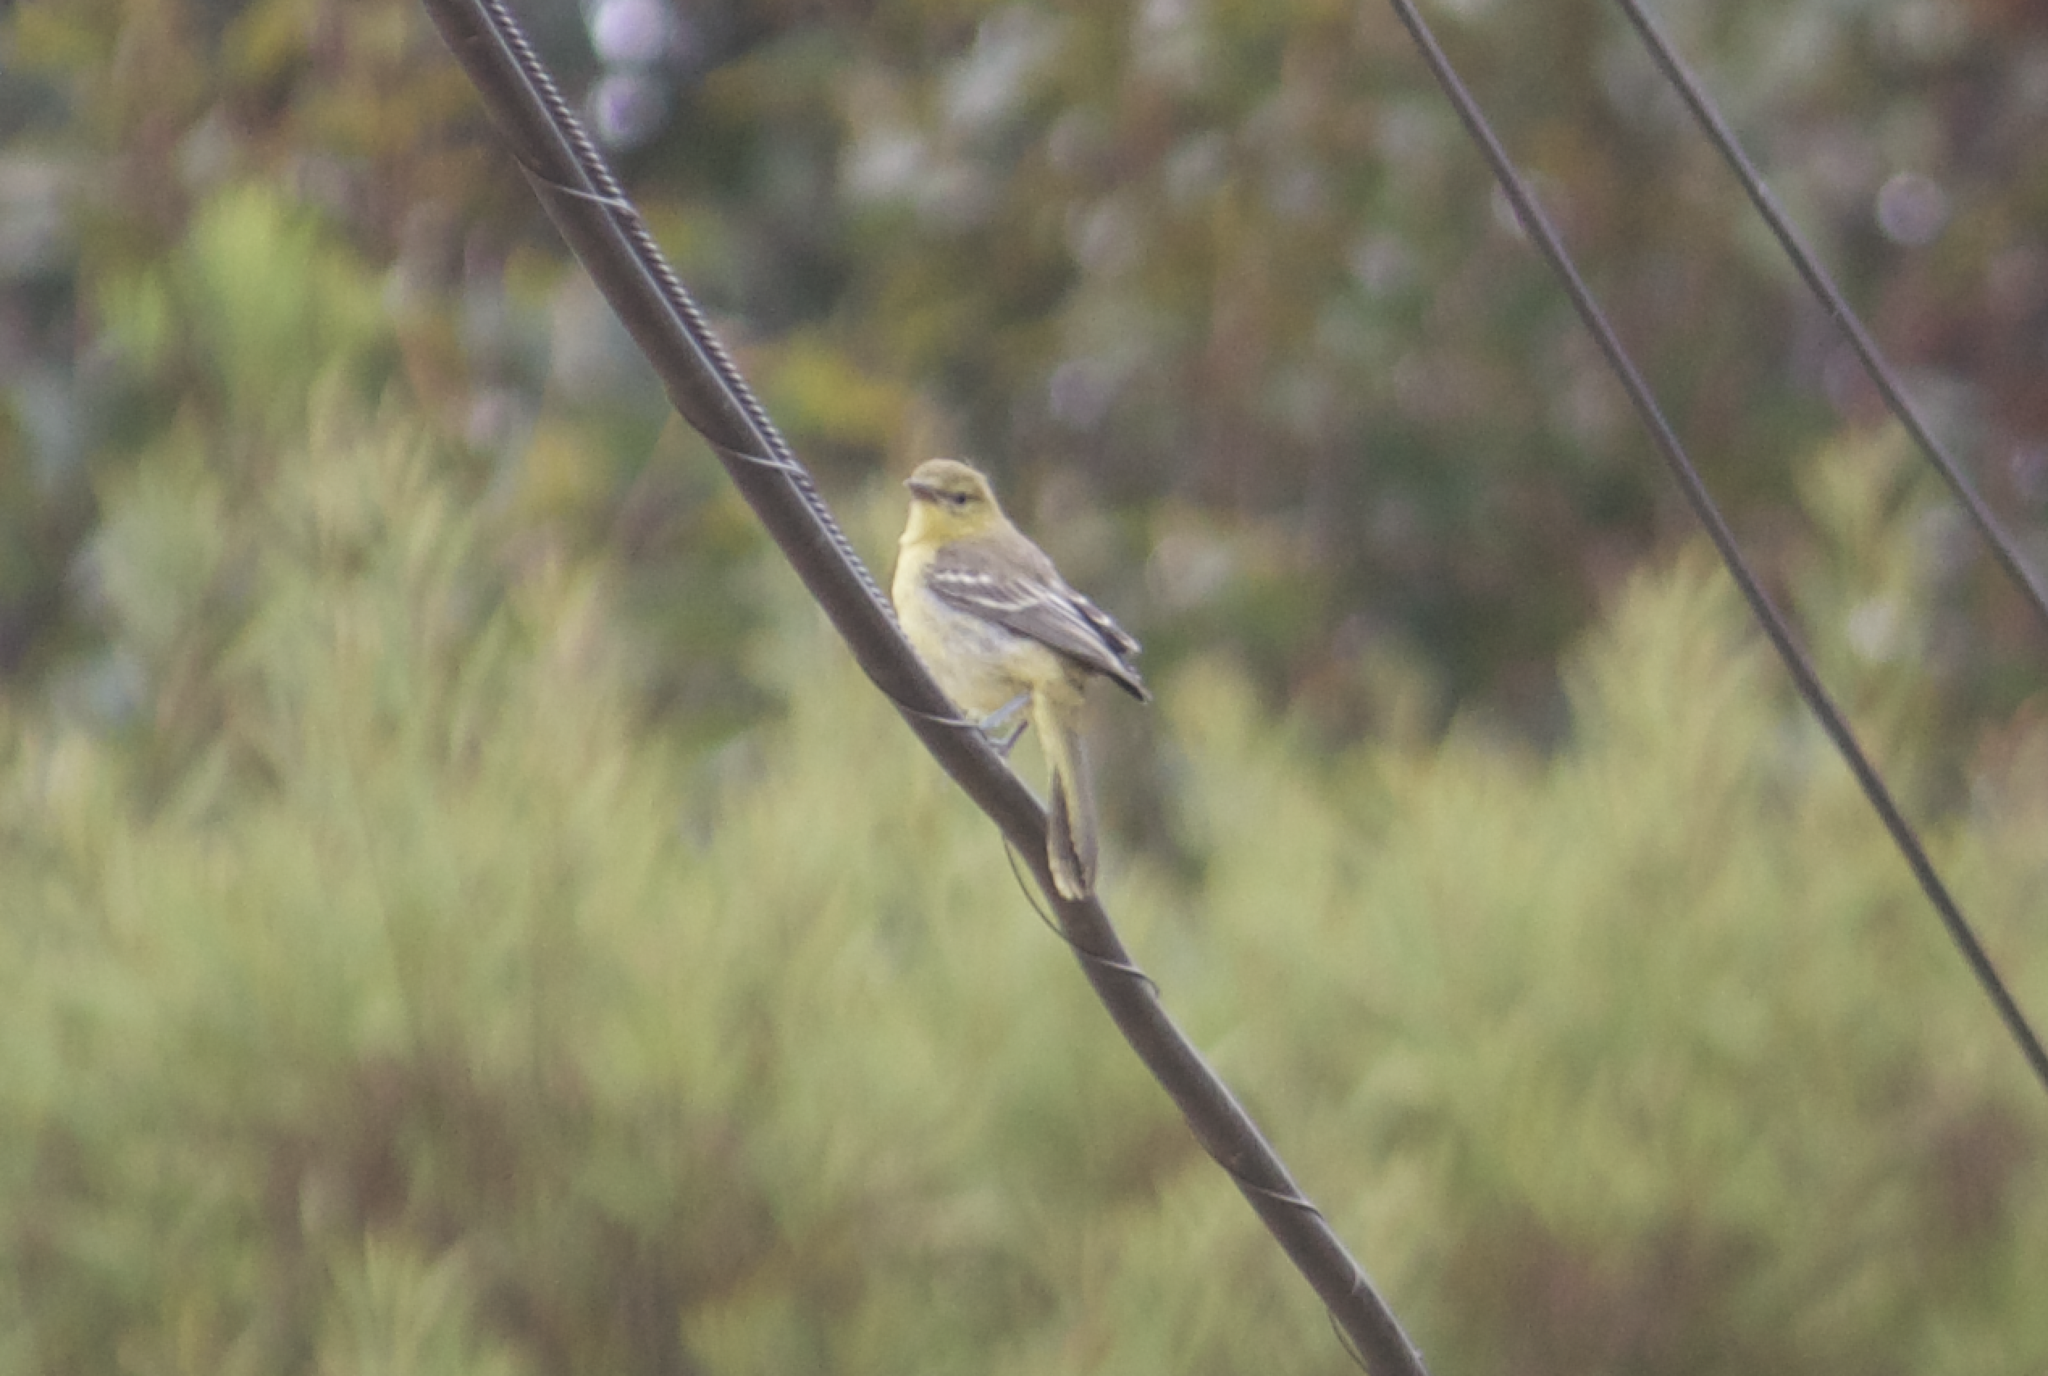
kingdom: Animalia
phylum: Chordata
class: Aves
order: Passeriformes
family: Icteridae
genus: Icterus
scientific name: Icterus bullockii
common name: Bullock's oriole
